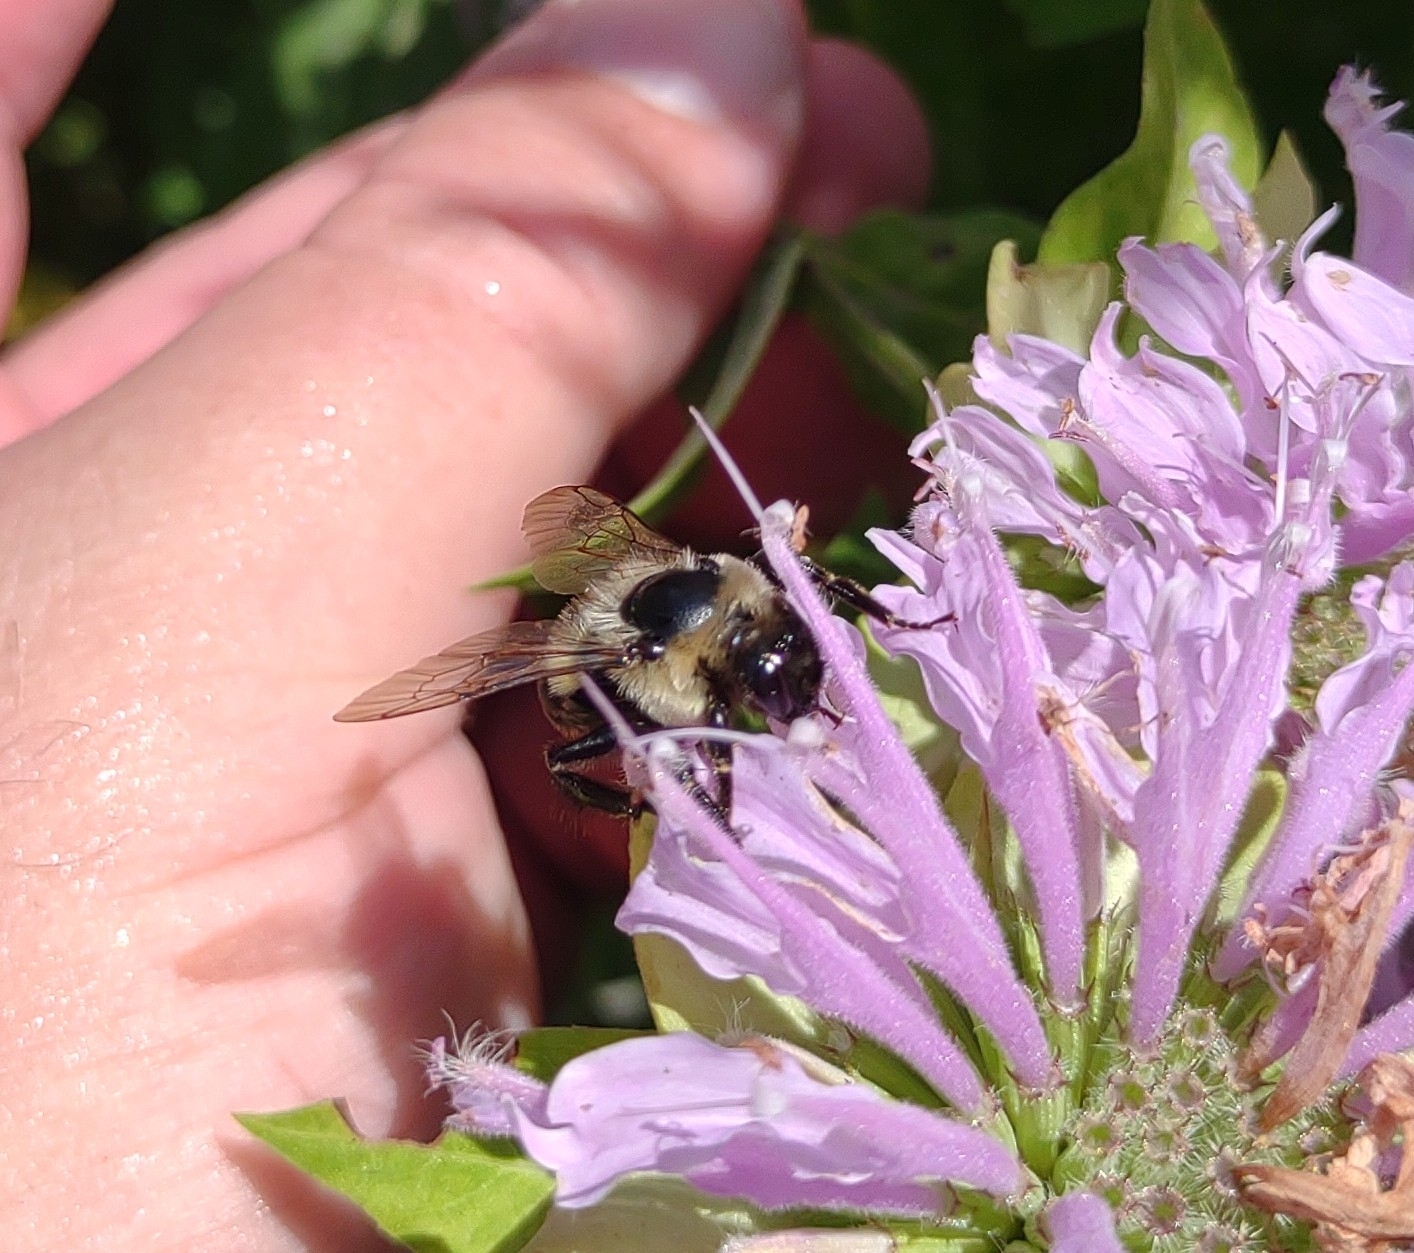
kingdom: Animalia
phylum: Arthropoda
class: Insecta
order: Hymenoptera
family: Apidae
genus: Bombus
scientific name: Bombus impatiens
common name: Common eastern bumble bee
